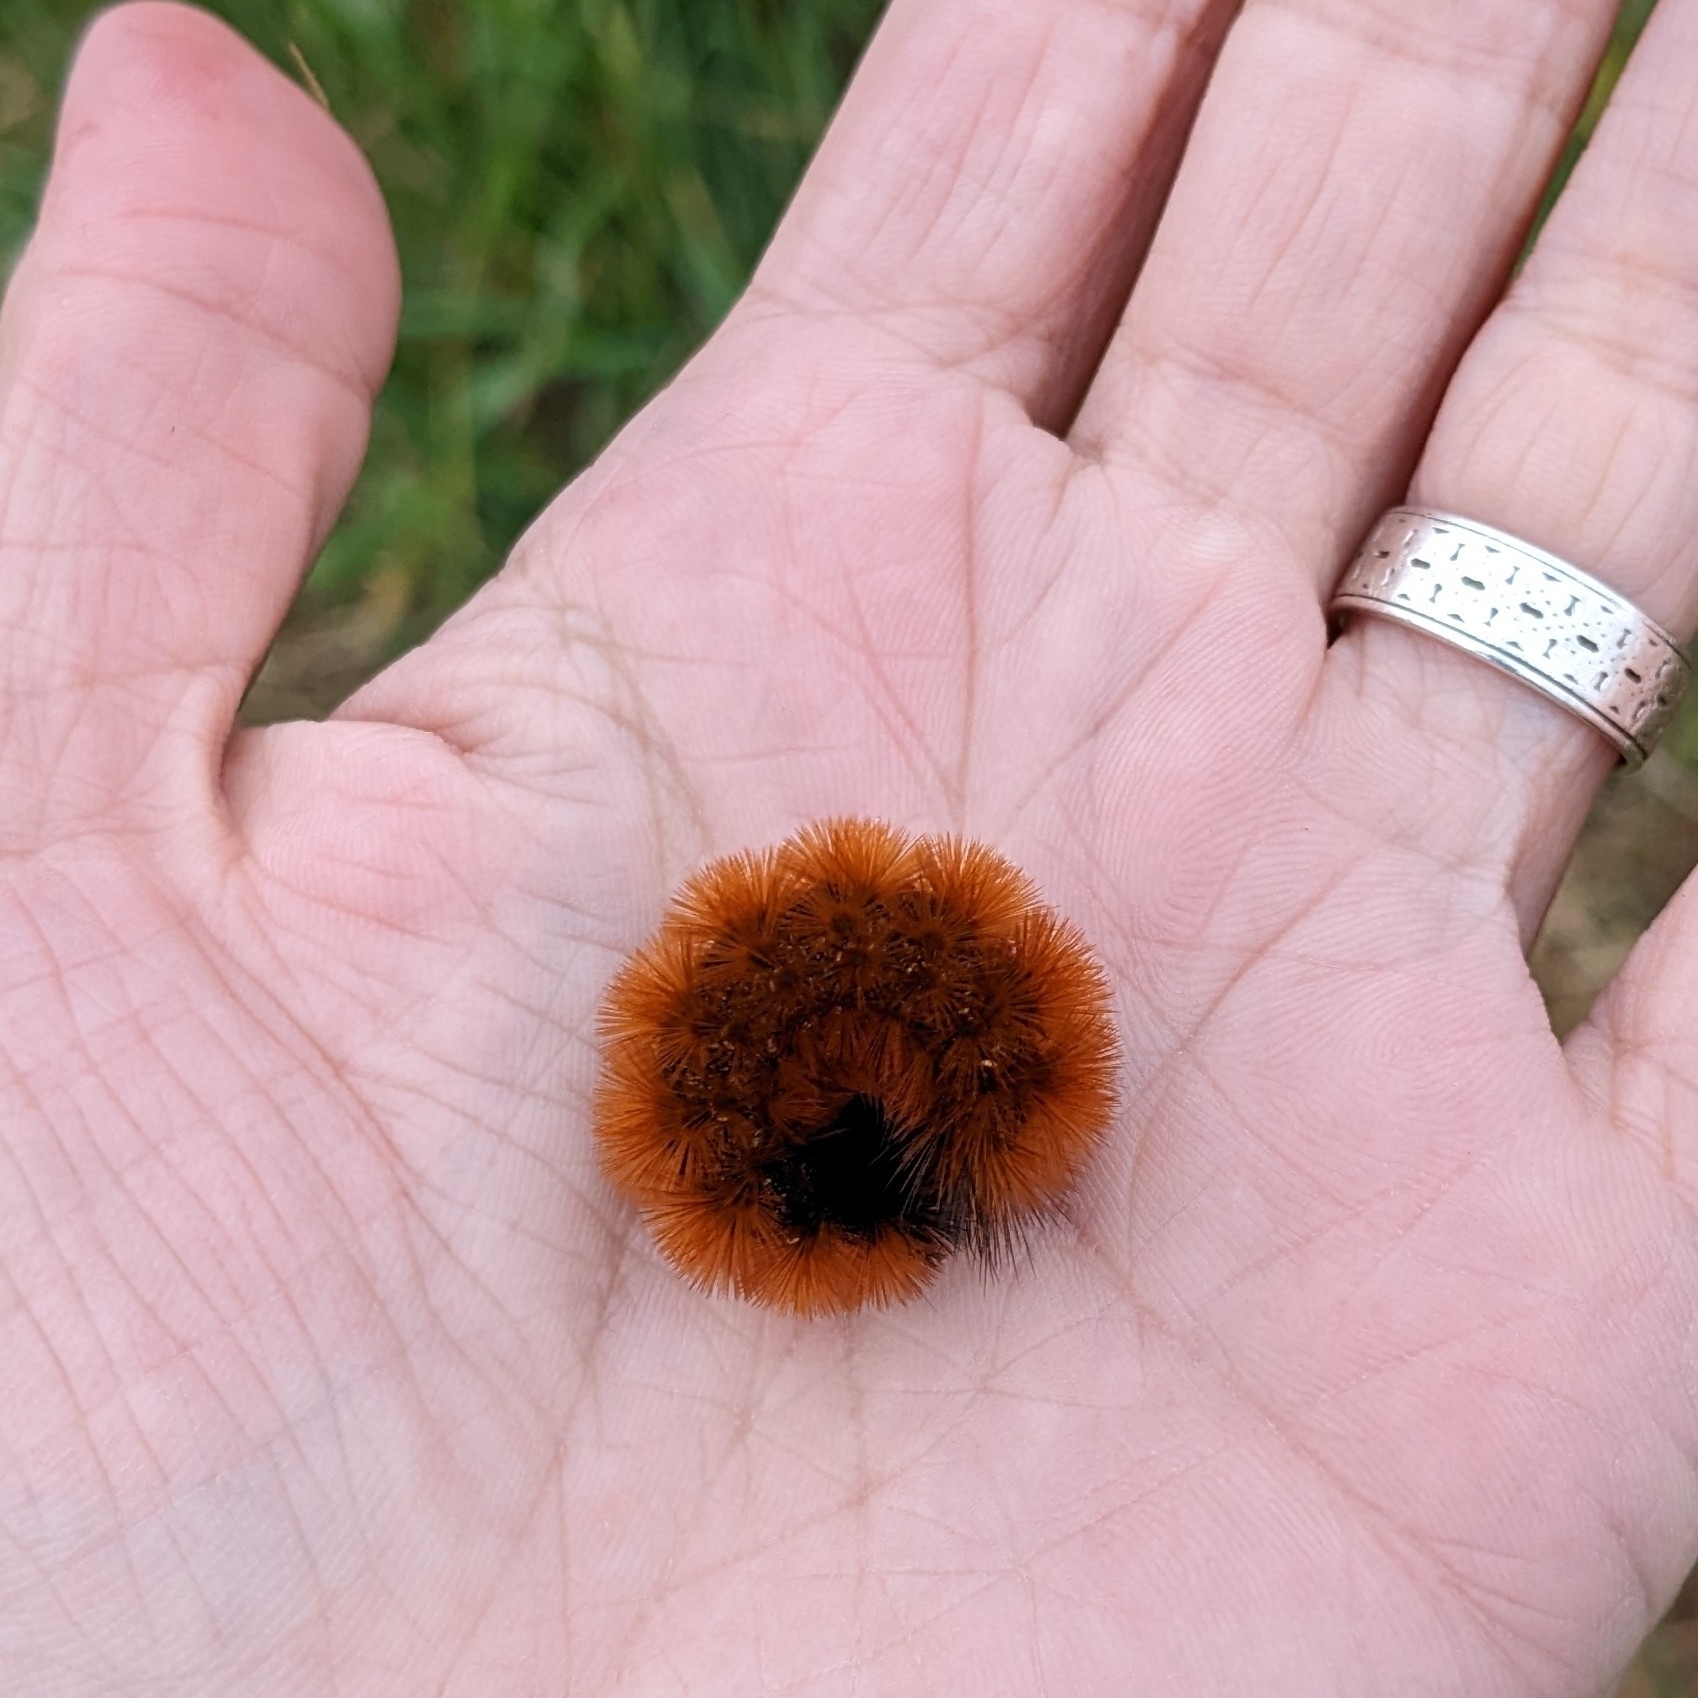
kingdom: Animalia
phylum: Arthropoda
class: Insecta
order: Lepidoptera
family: Erebidae
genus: Pyrrharctia
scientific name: Pyrrharctia isabella
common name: Isabella tiger moth
